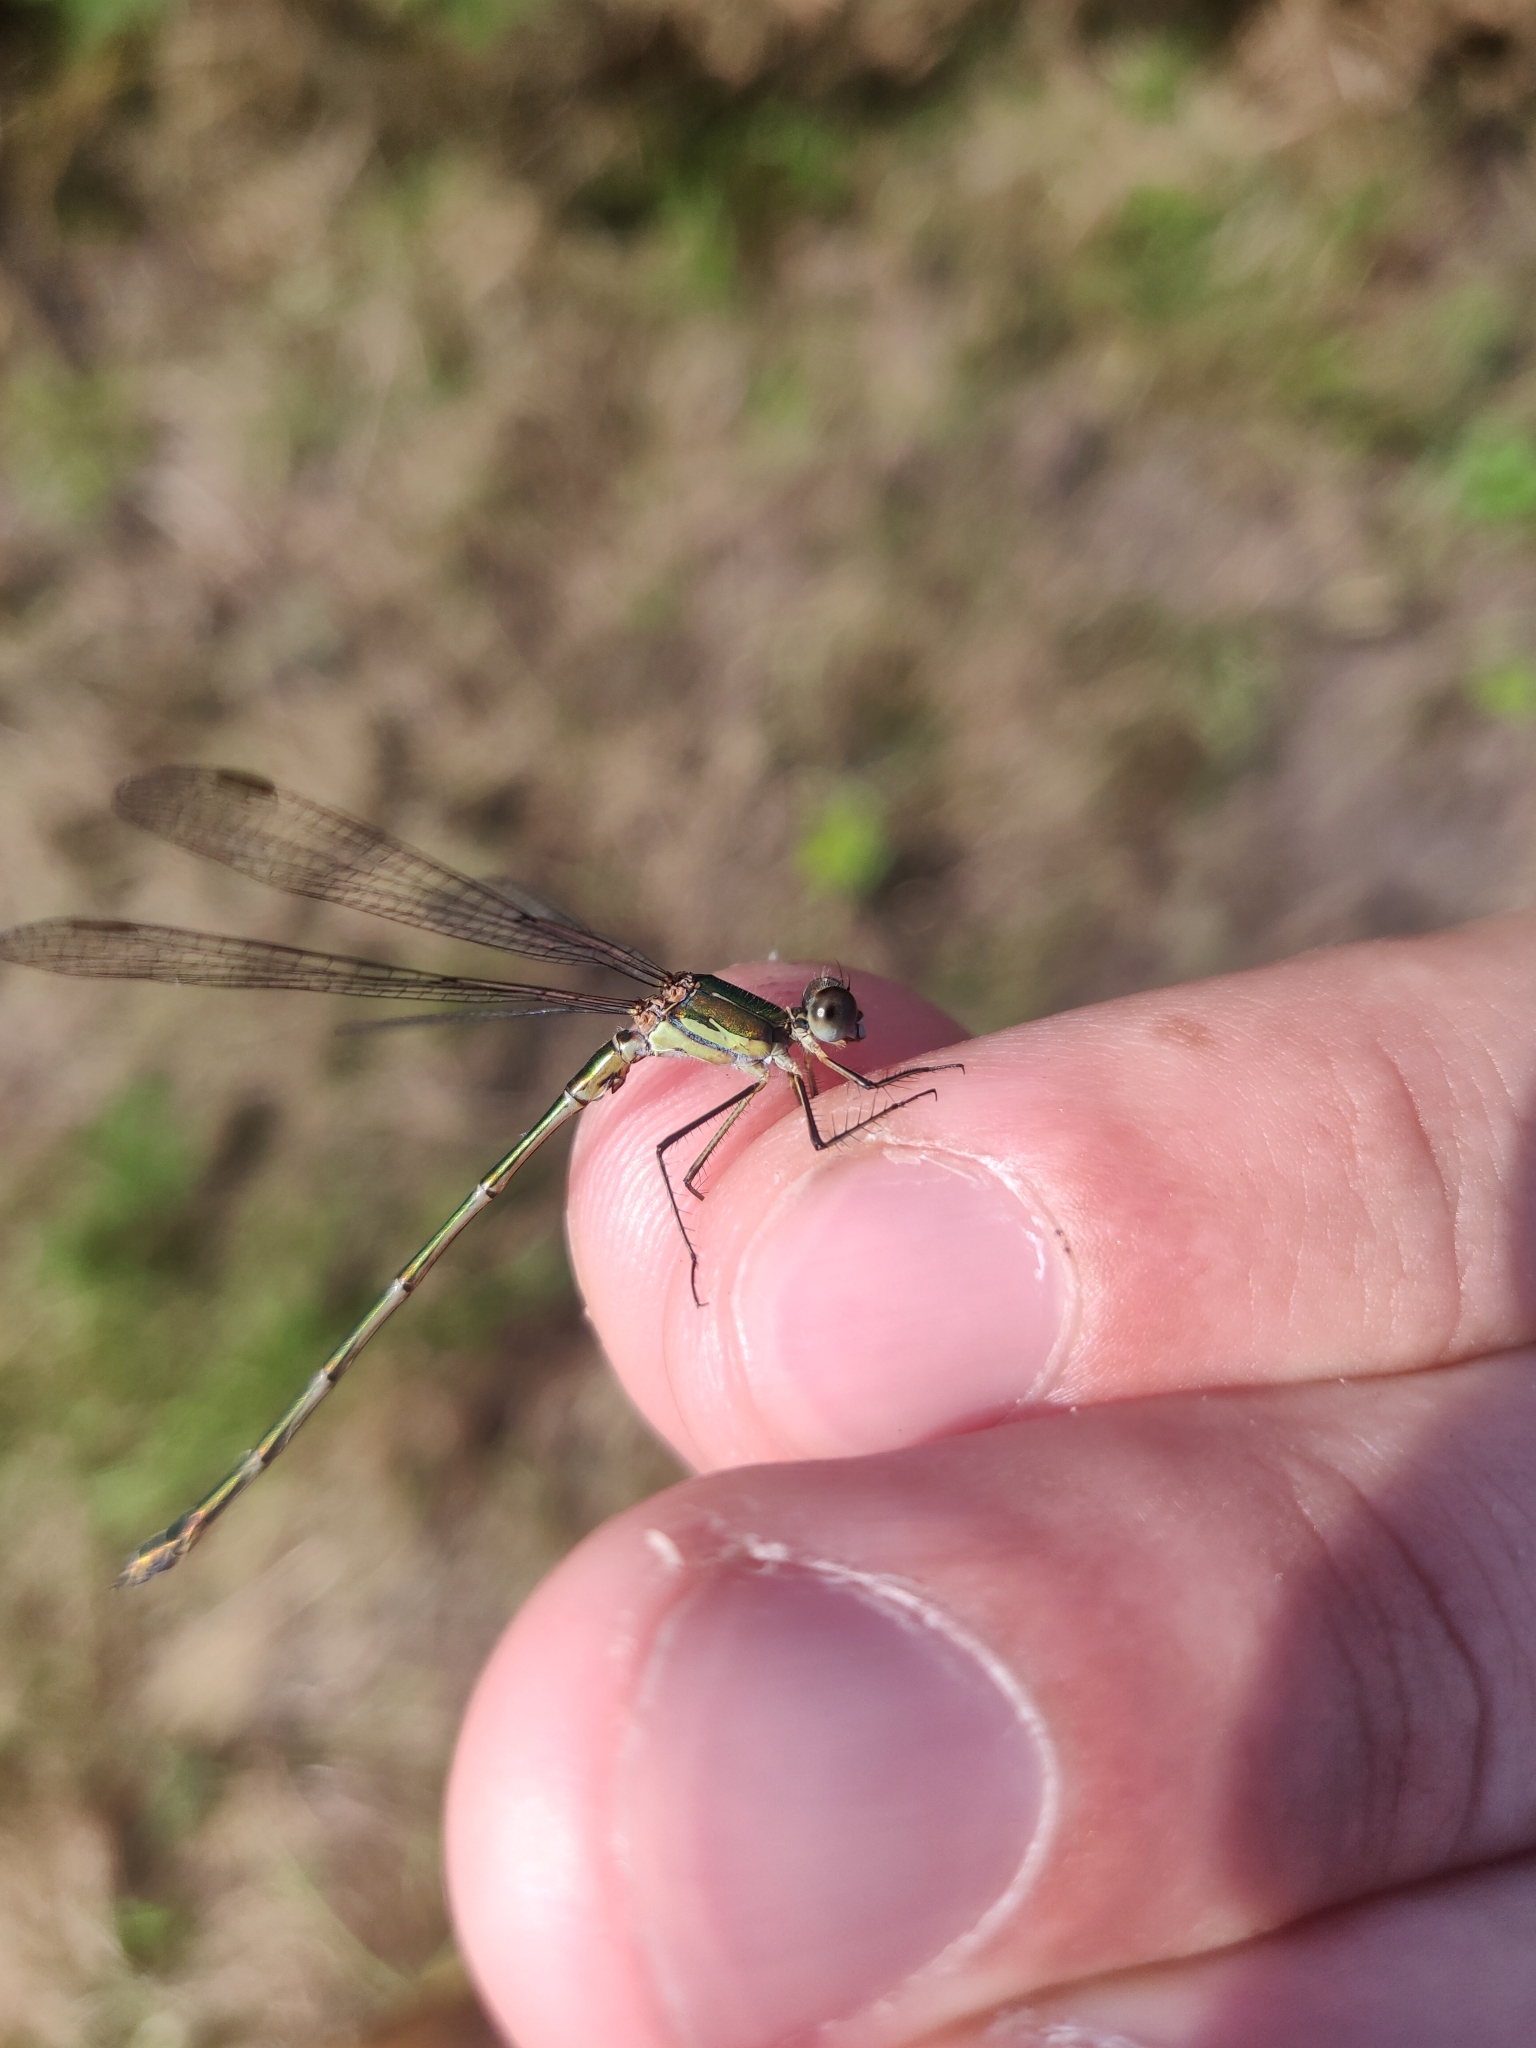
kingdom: Animalia
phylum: Arthropoda
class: Insecta
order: Odonata
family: Lestidae
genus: Chalcolestes
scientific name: Chalcolestes viridis
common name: Green emerald damselfly
